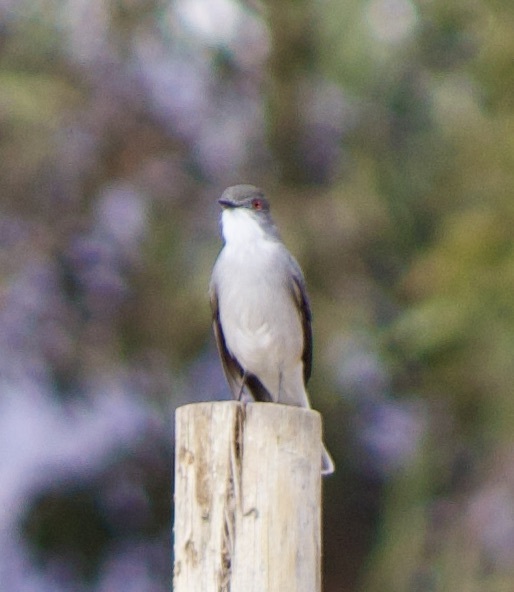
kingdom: Animalia
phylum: Chordata
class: Aves
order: Passeriformes
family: Tyrannidae
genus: Xolmis
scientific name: Xolmis pyrope
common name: Fire-eyed diucon
